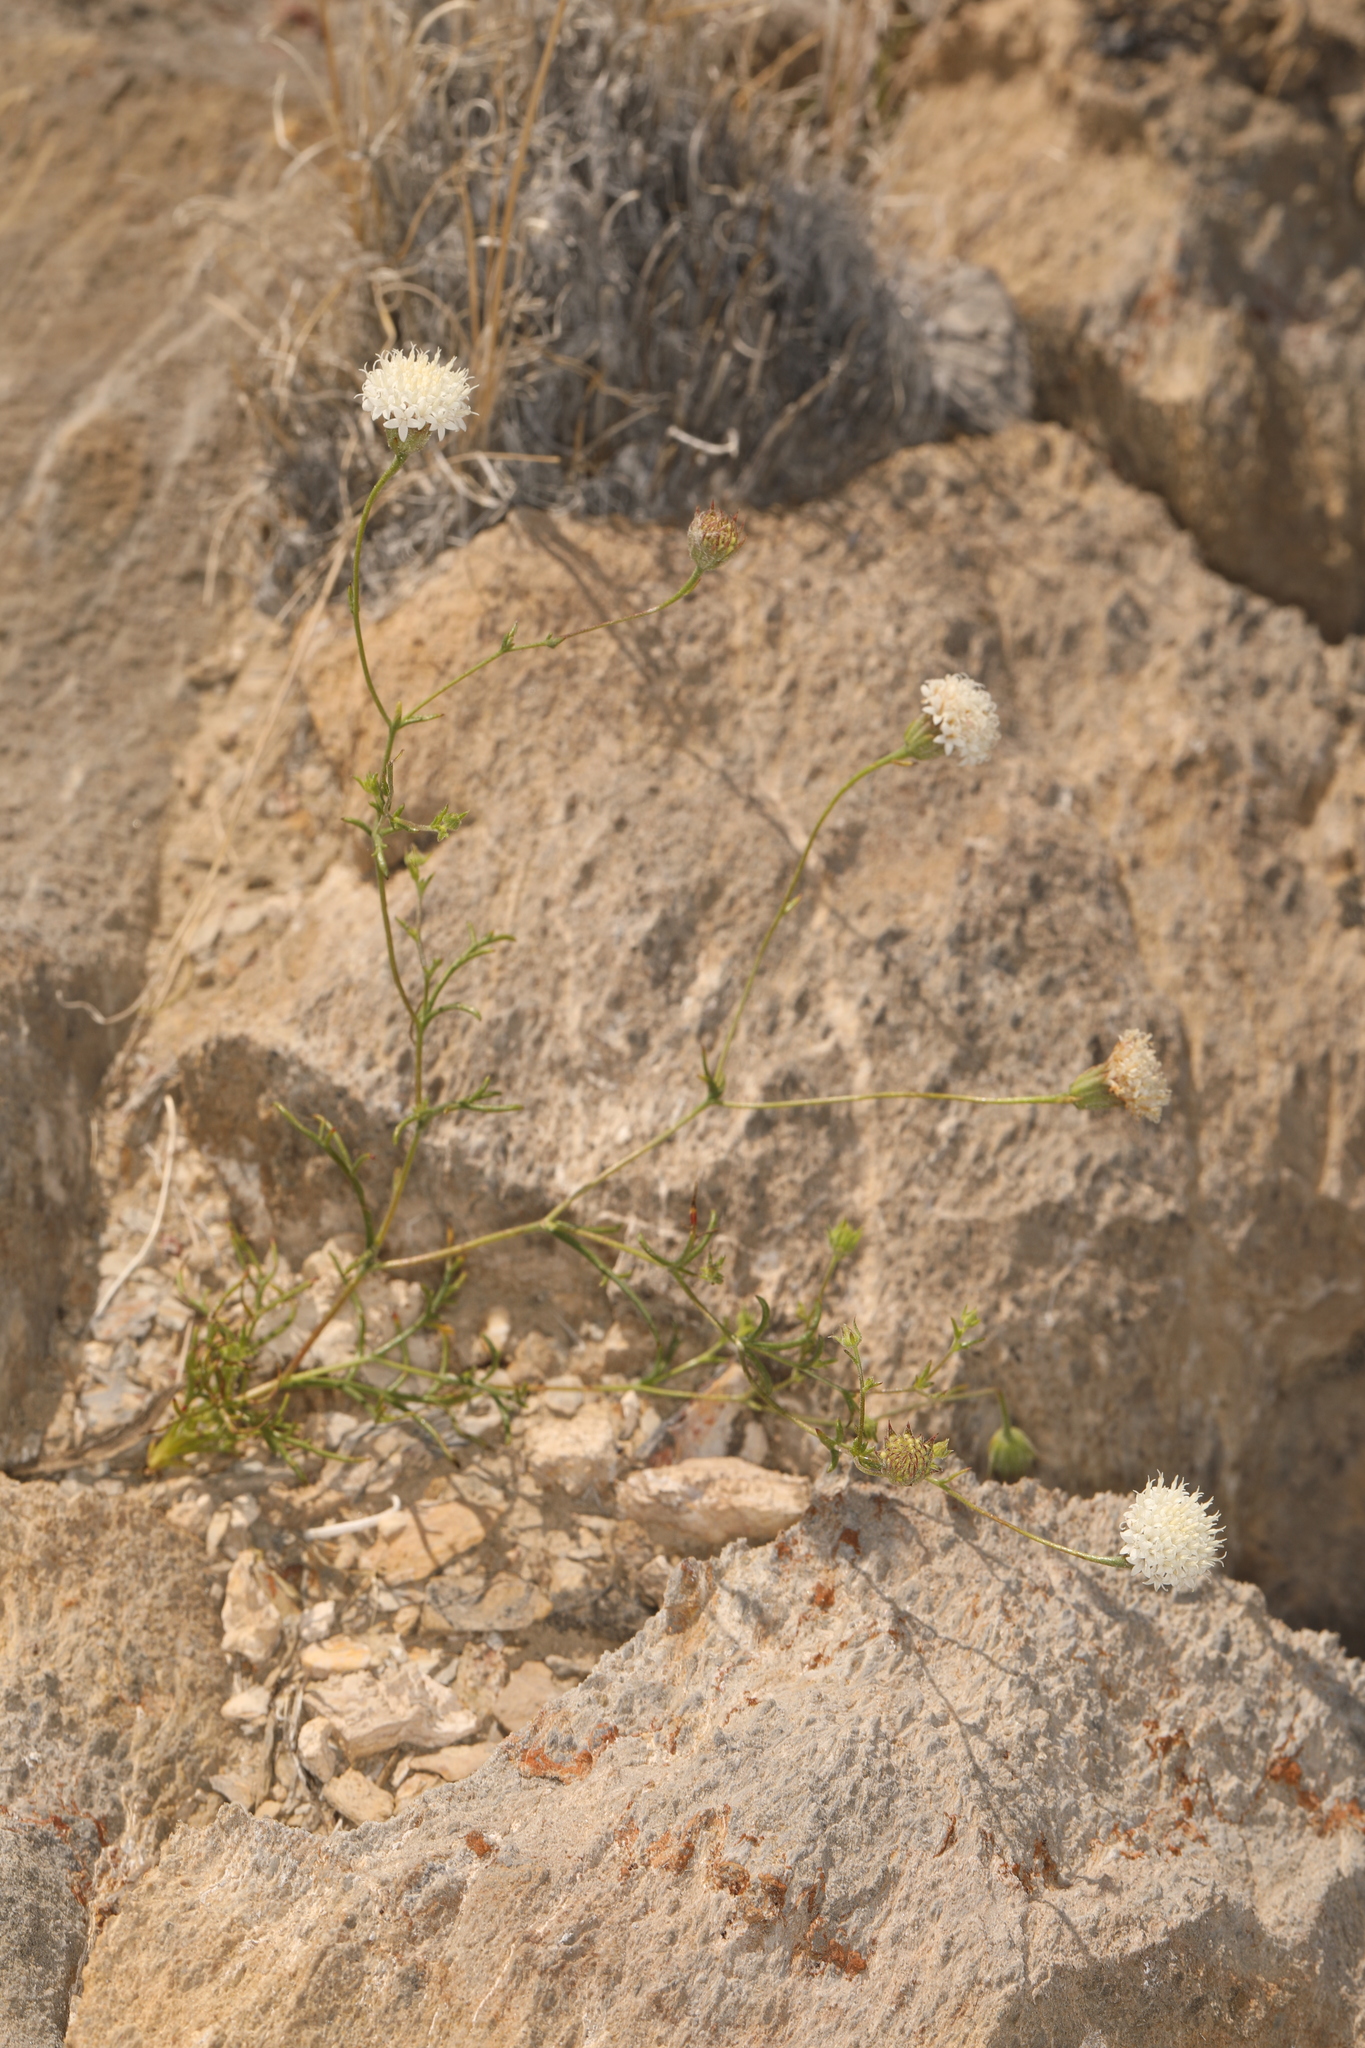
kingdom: Plantae
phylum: Tracheophyta
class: Magnoliopsida
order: Asterales
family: Asteraceae
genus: Chaenactis
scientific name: Chaenactis carphoclinia
